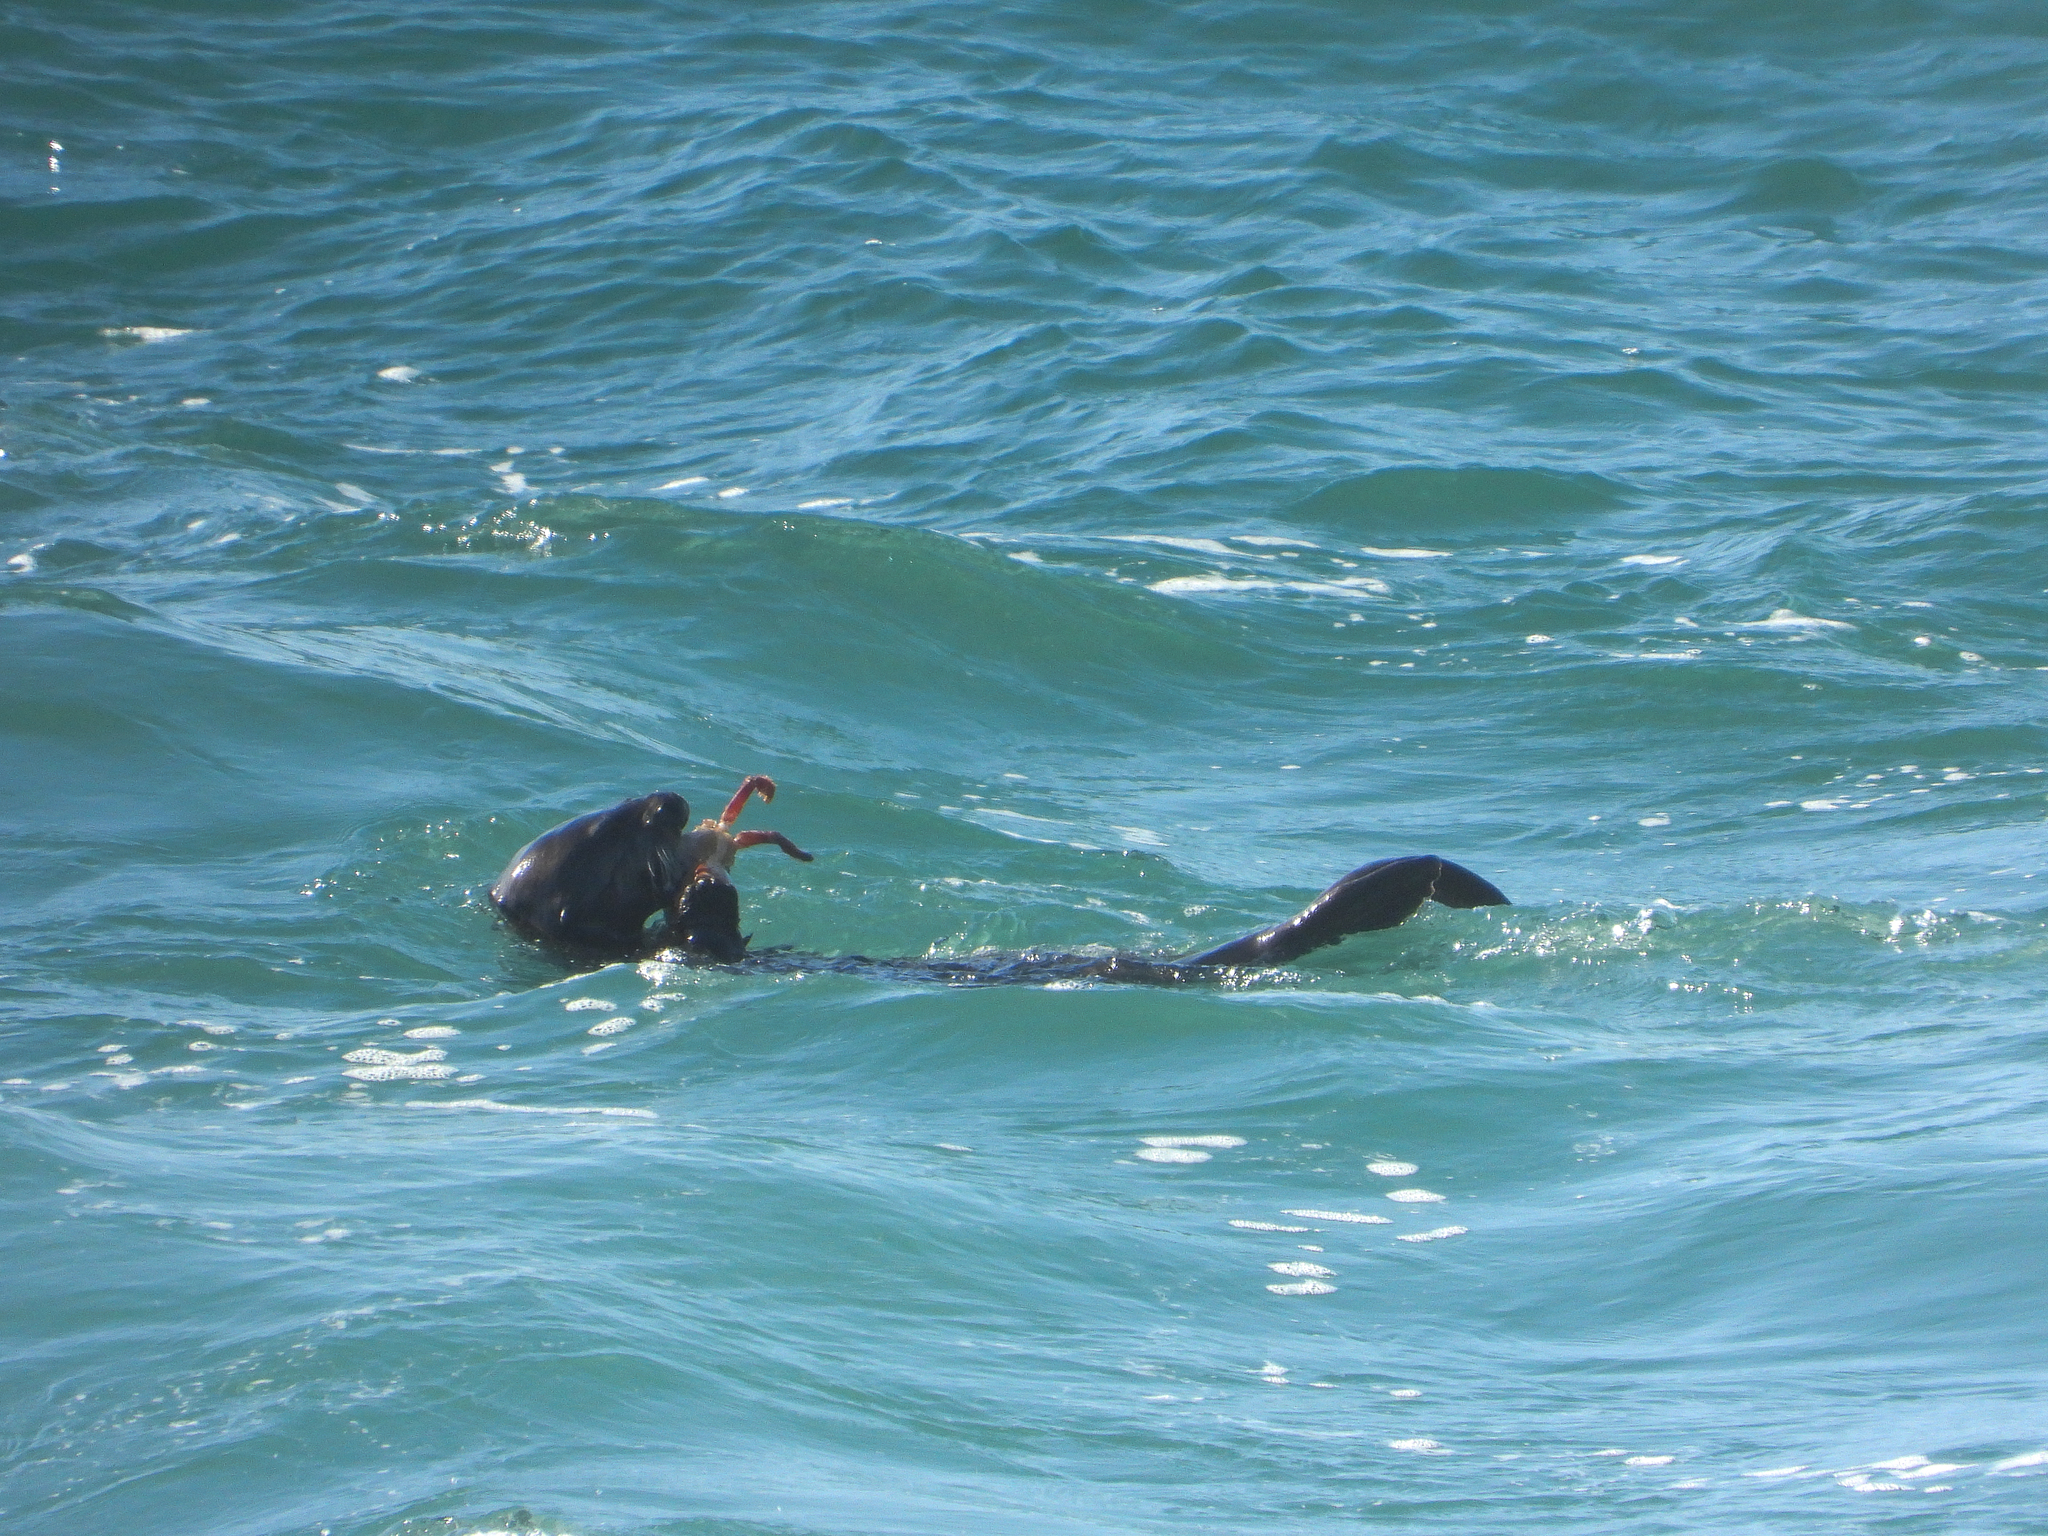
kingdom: Animalia
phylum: Chordata
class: Mammalia
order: Carnivora
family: Mustelidae
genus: Enhydra
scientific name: Enhydra lutris
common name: Sea otter
